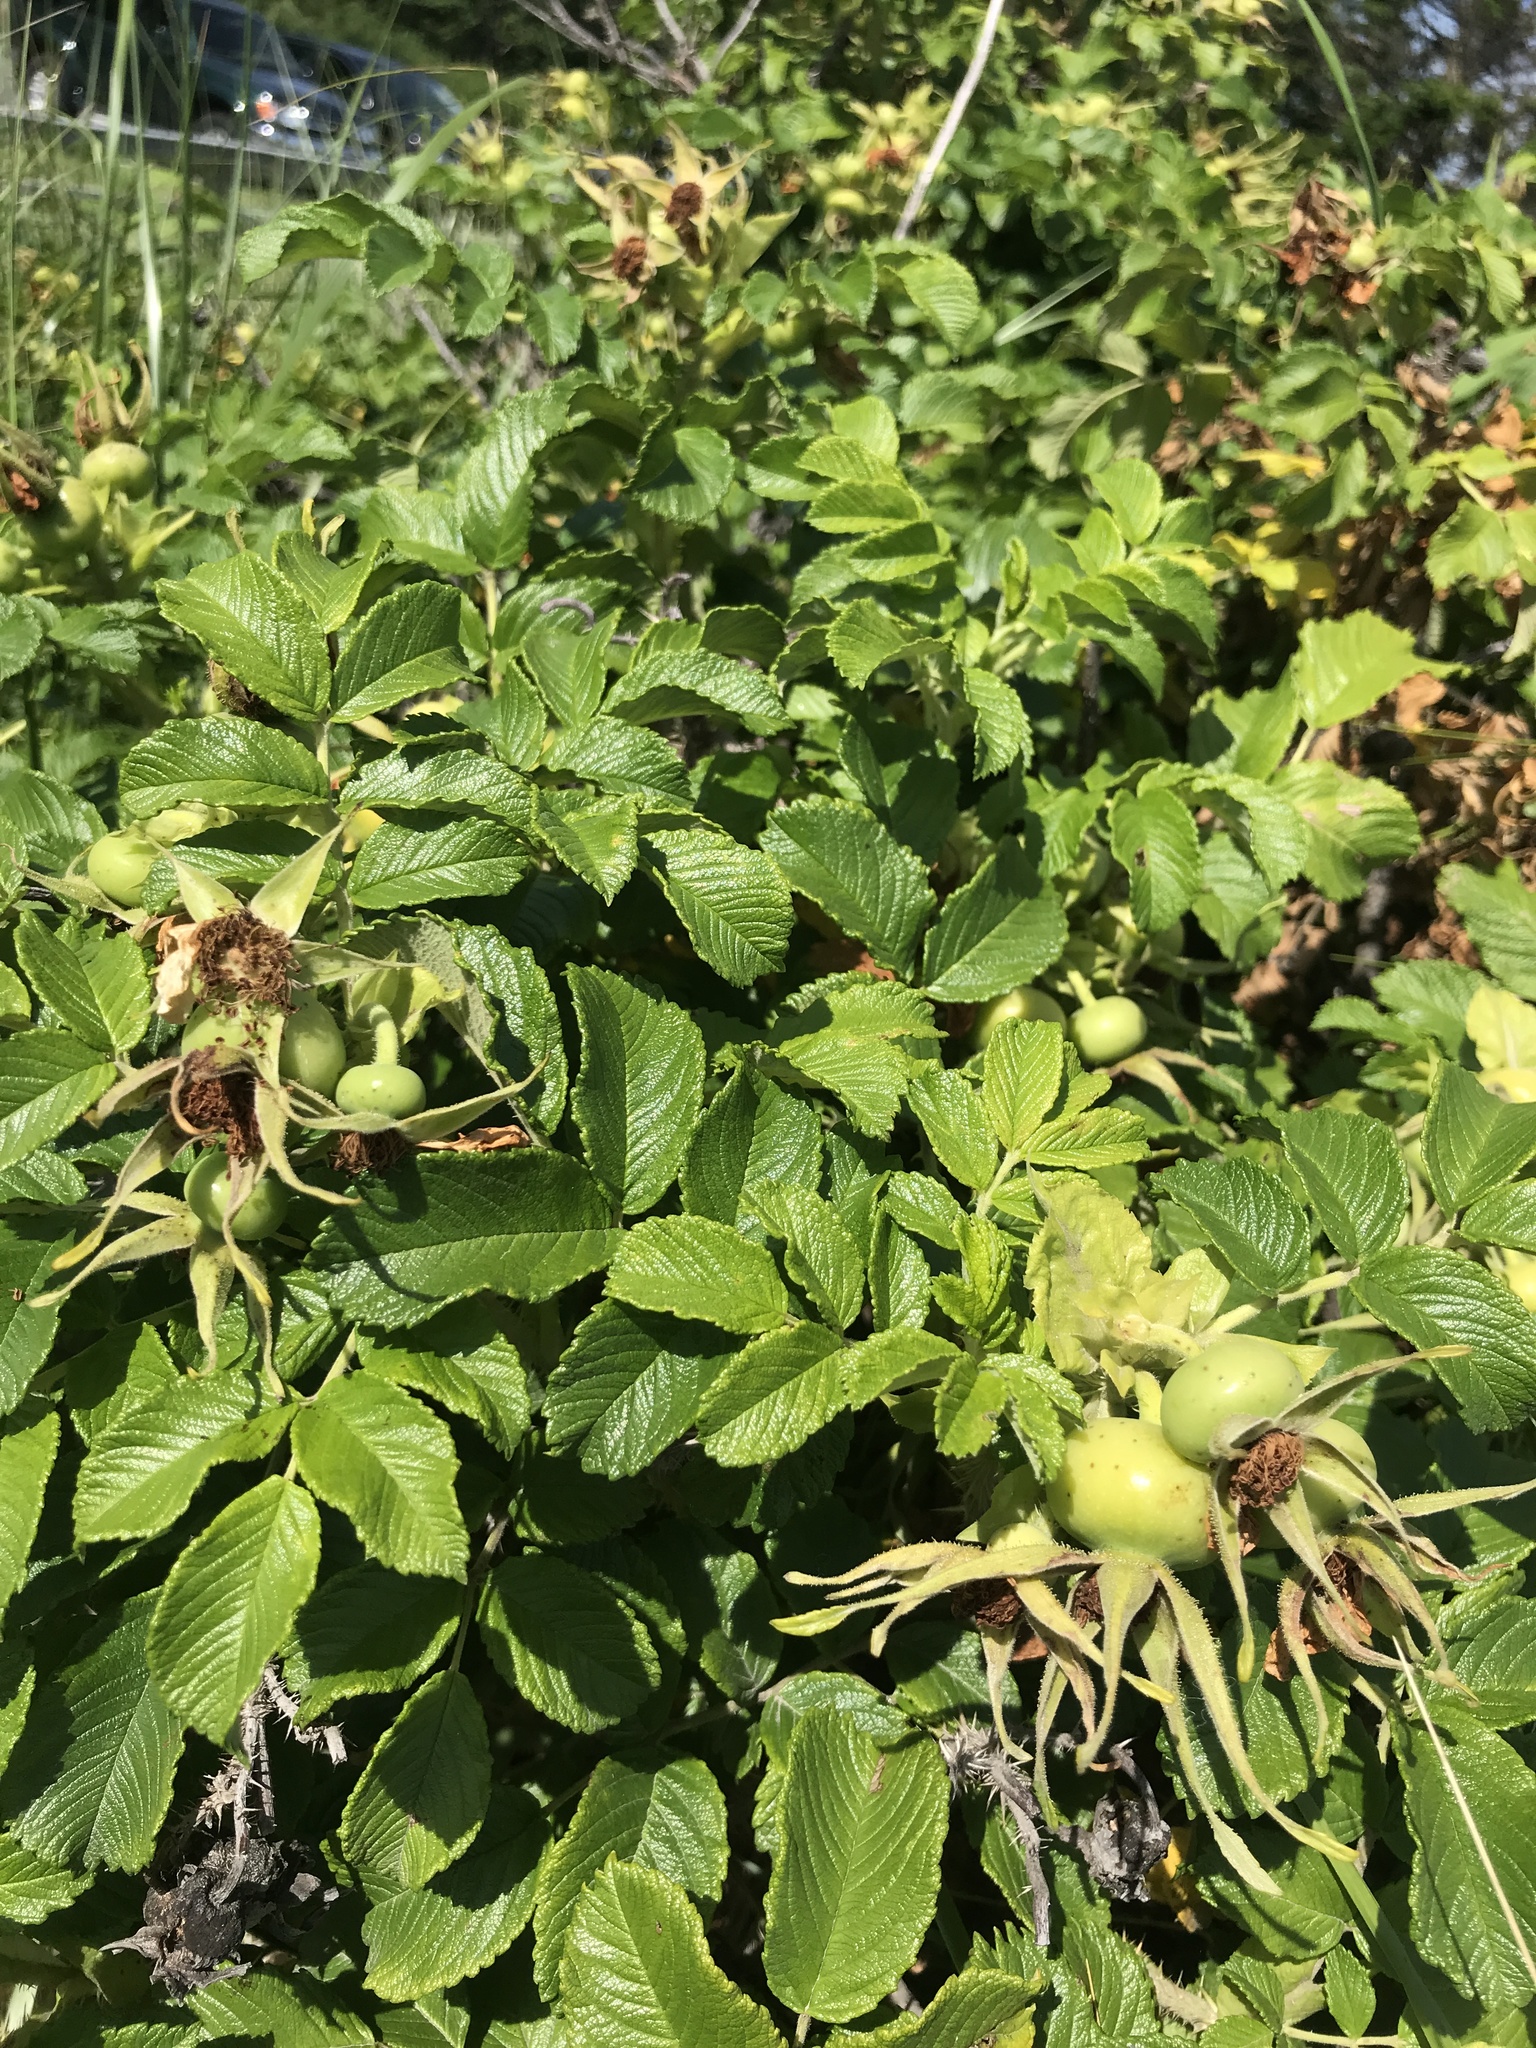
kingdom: Plantae
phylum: Tracheophyta
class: Magnoliopsida
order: Rosales
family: Rosaceae
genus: Rosa
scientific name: Rosa rugosa
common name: Japanese rose
